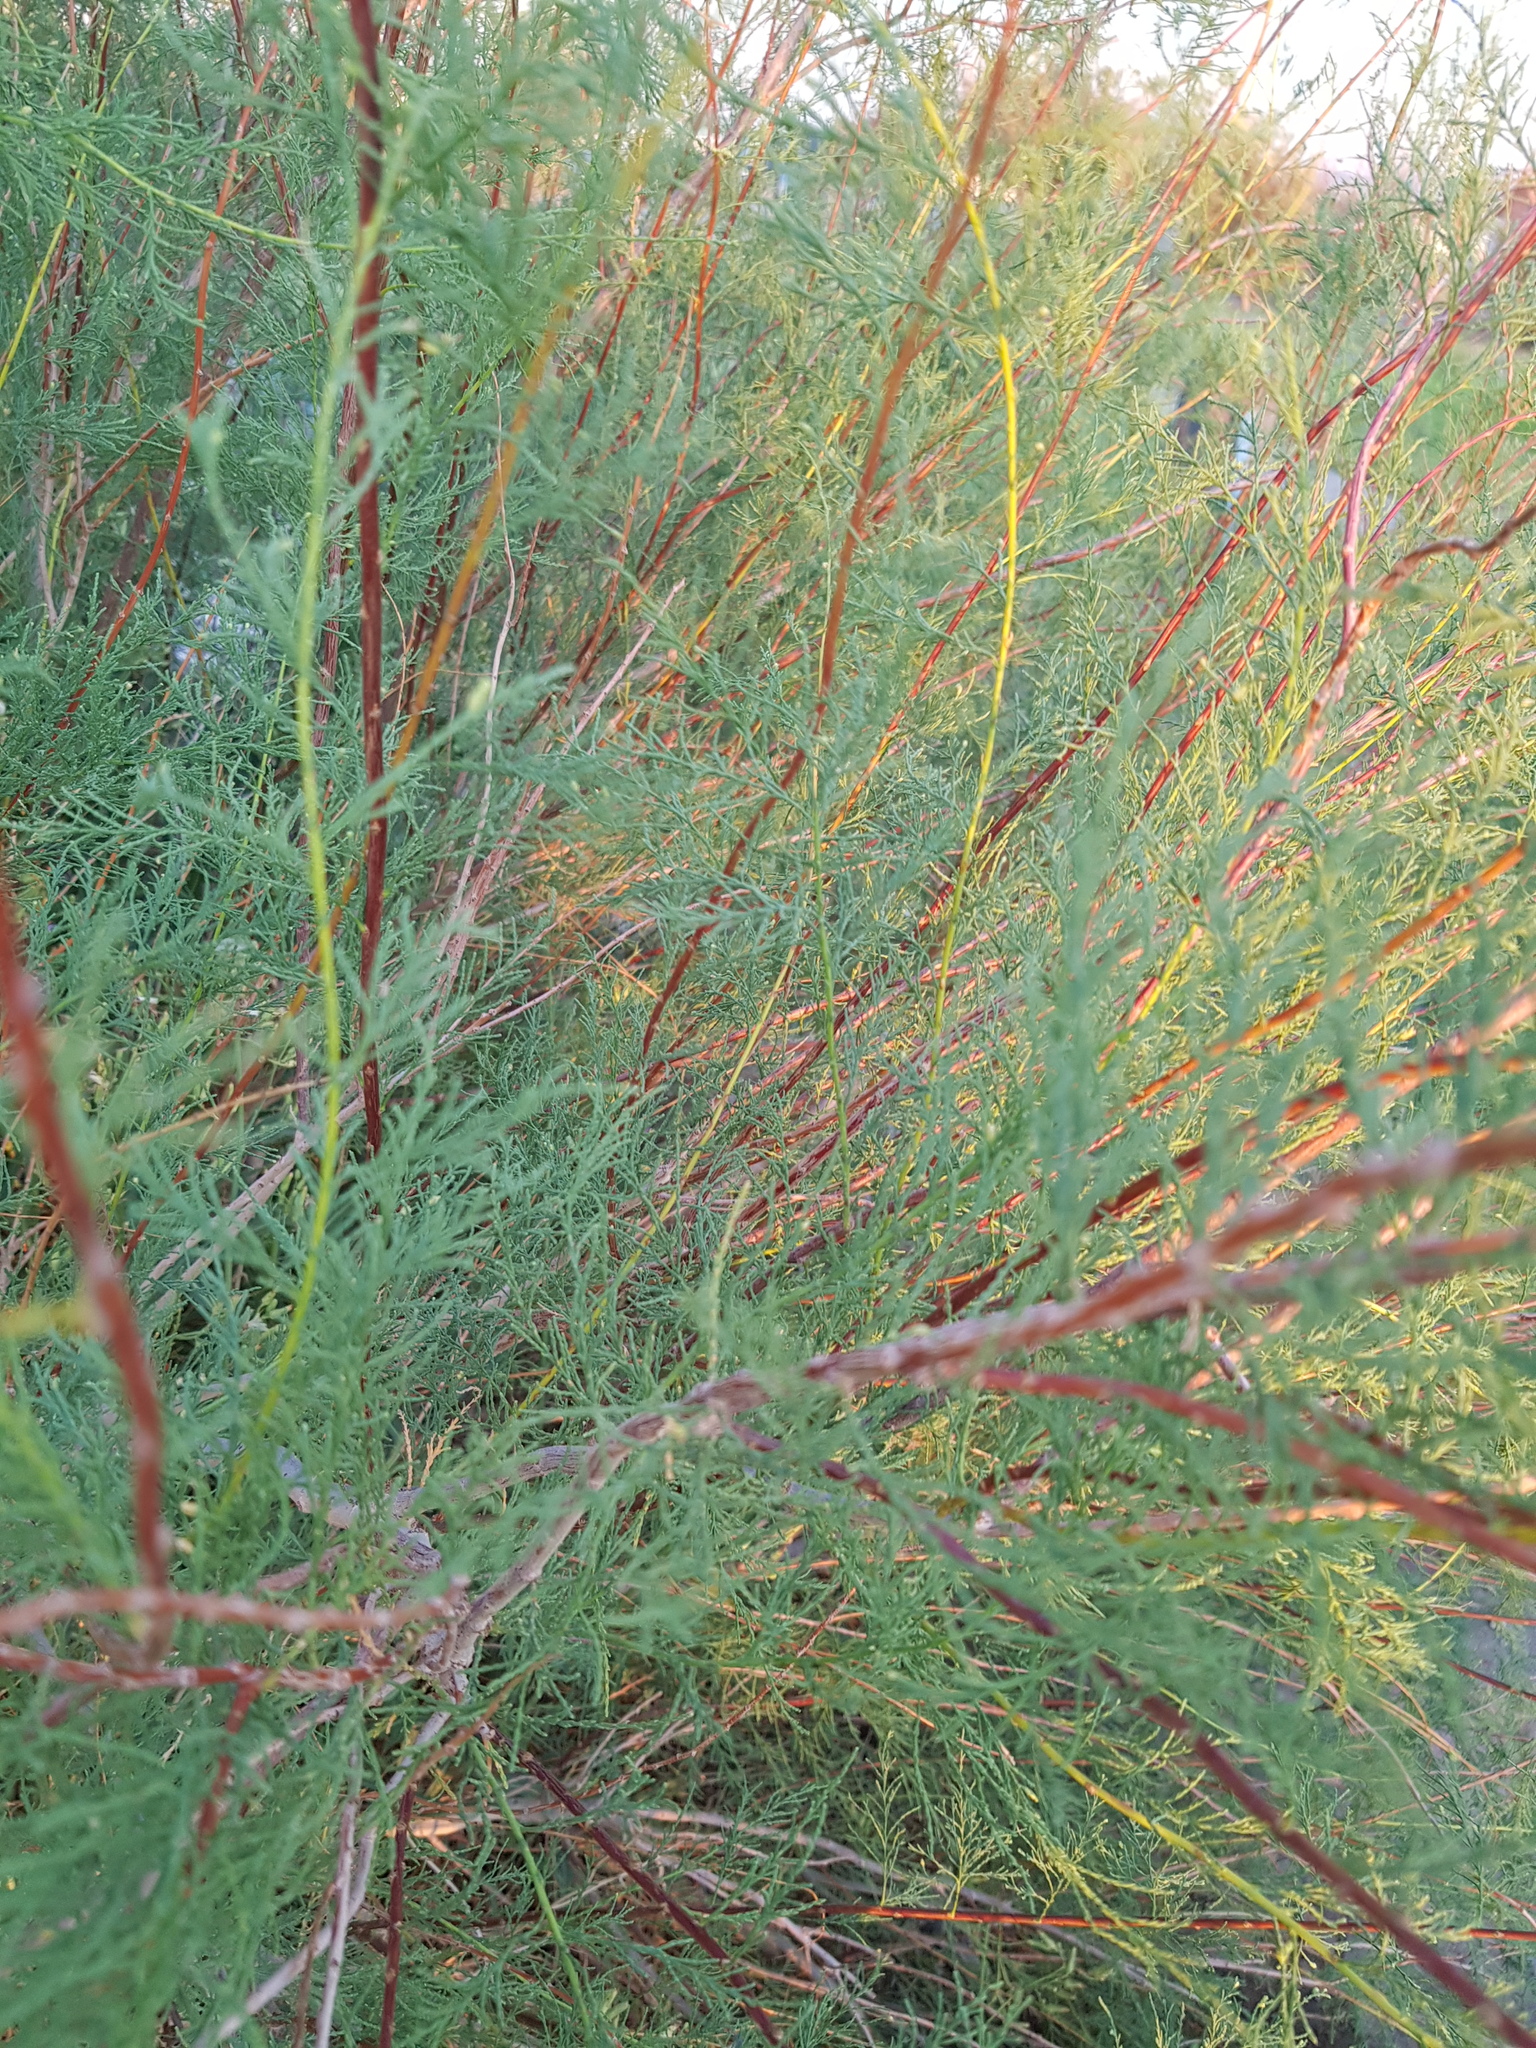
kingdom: Plantae
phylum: Tracheophyta
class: Magnoliopsida
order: Caryophyllales
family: Tamaricaceae
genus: Tamarix
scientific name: Tamarix ramosissima
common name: Pink tamarisk
